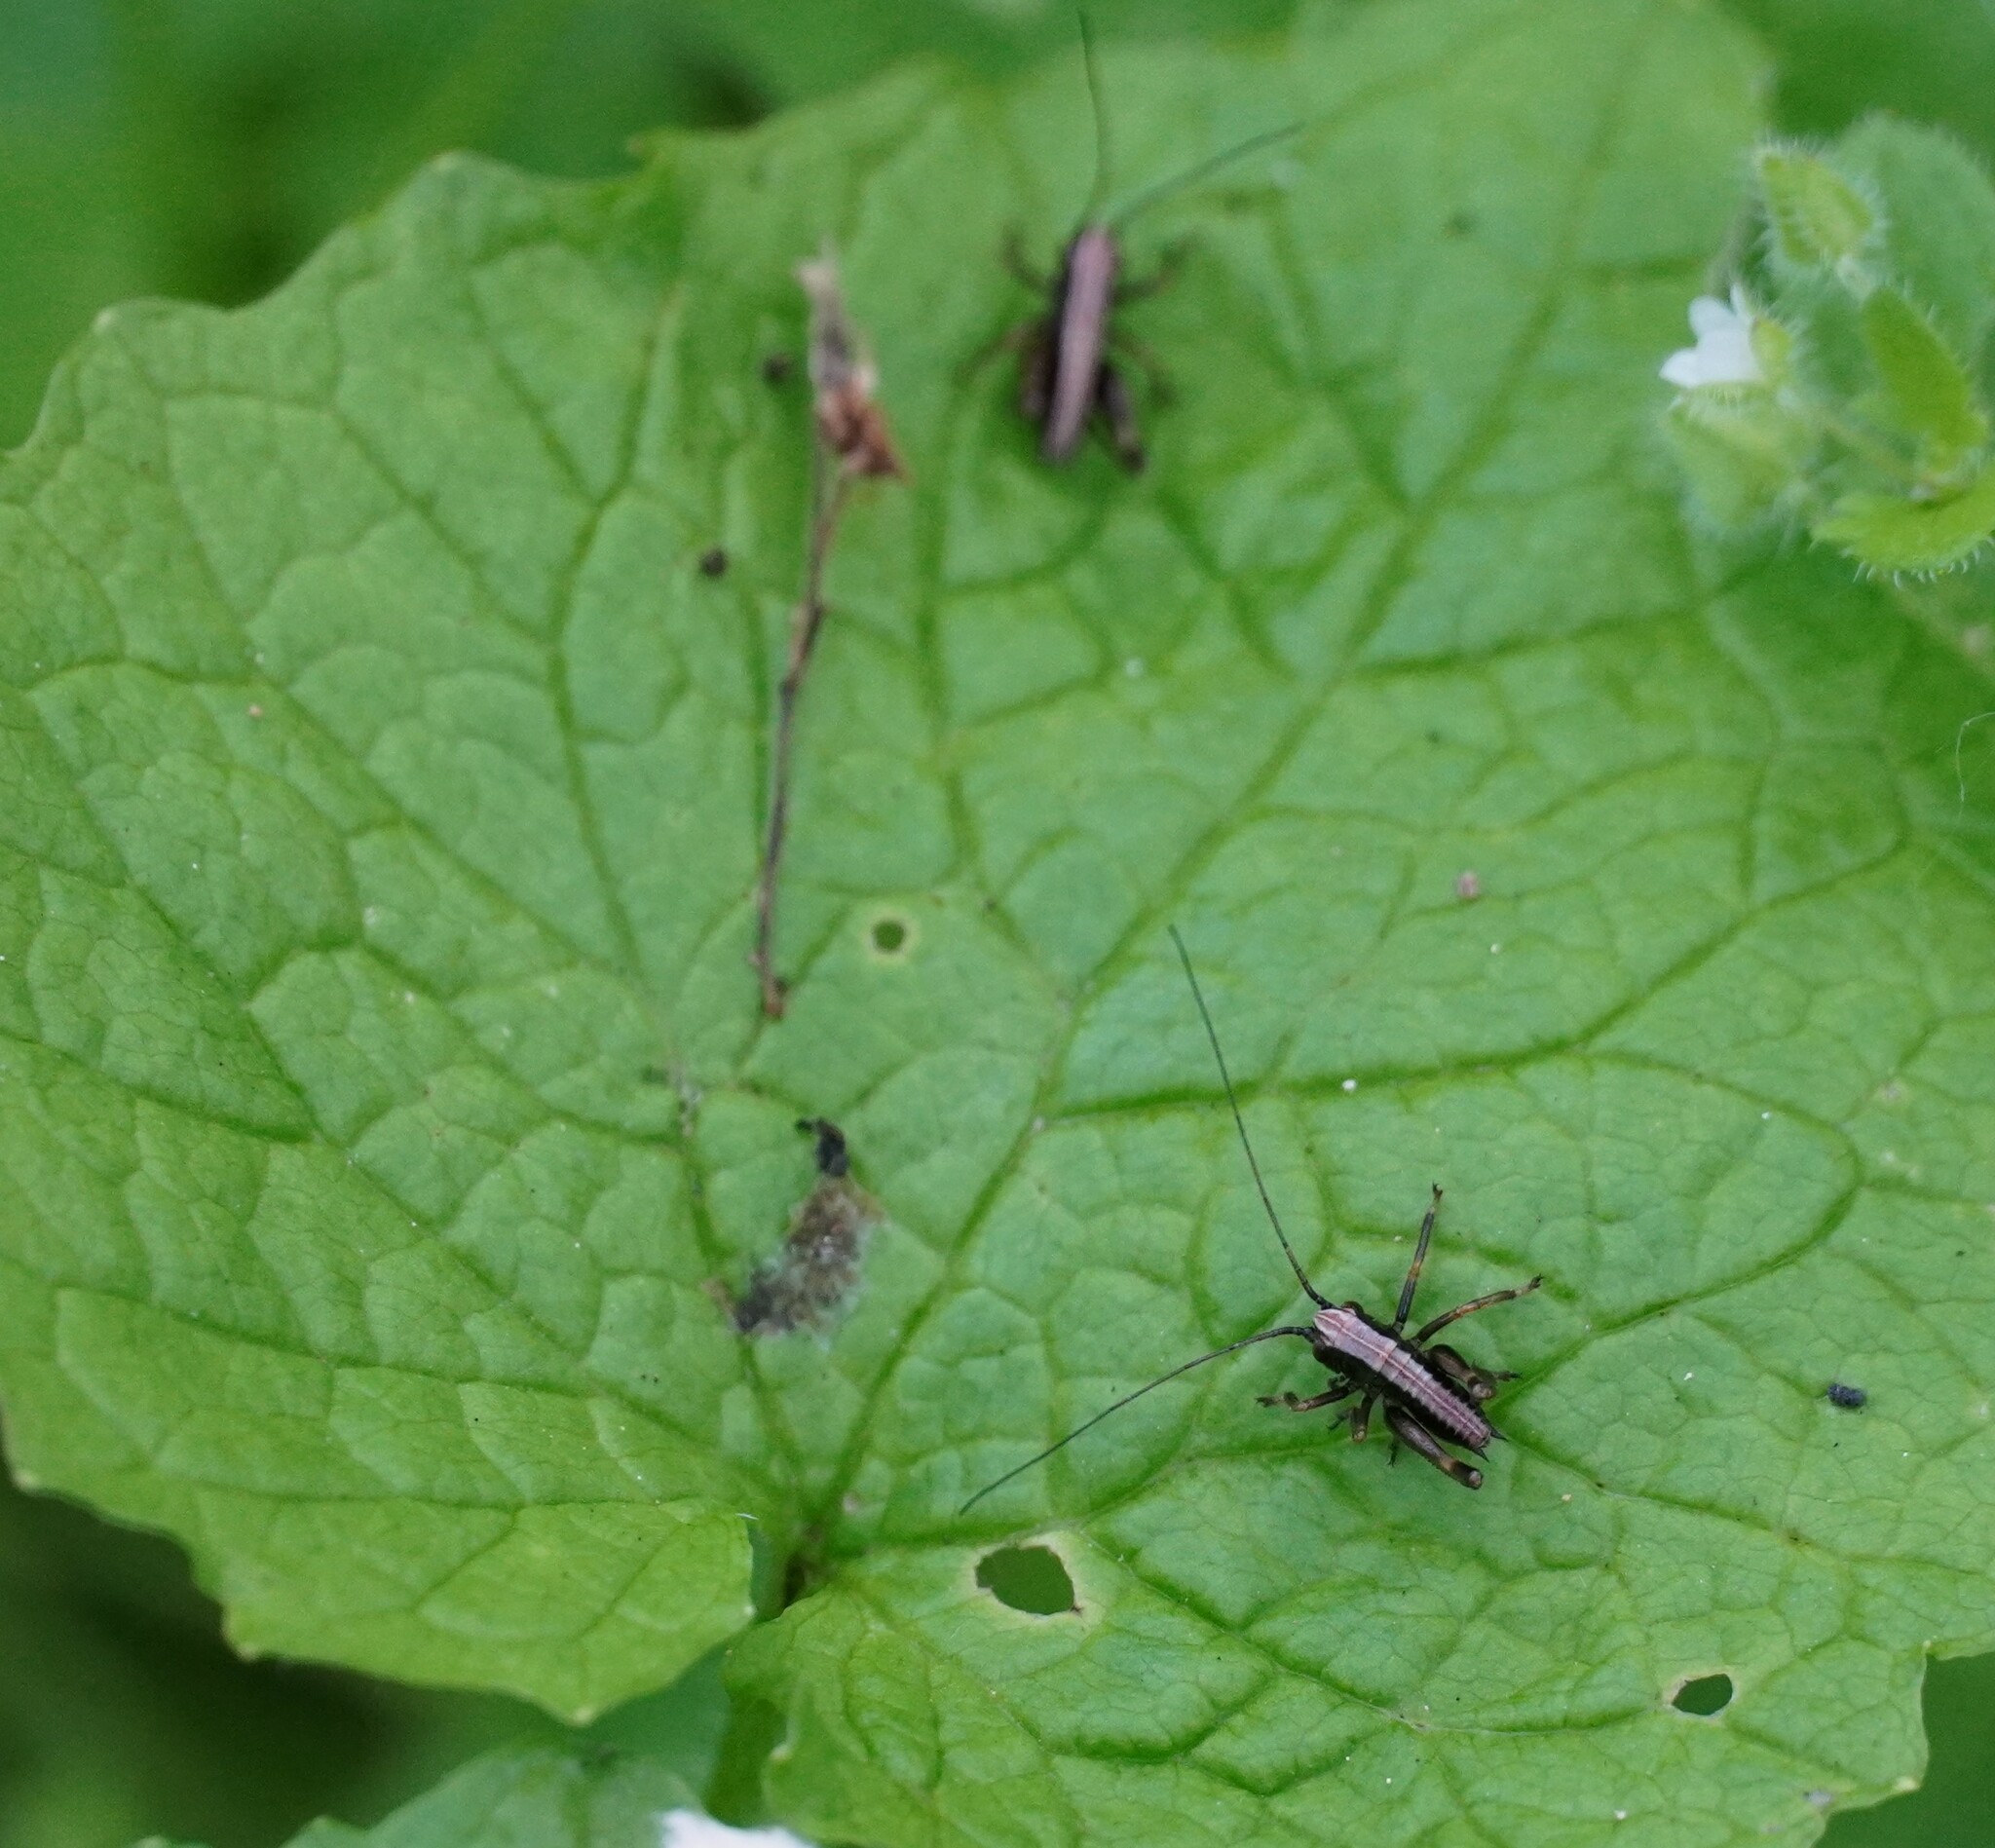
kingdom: Animalia
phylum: Arthropoda
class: Insecta
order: Orthoptera
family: Tettigoniidae
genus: Pholidoptera
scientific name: Pholidoptera griseoaptera
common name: Dark bush-cricket
